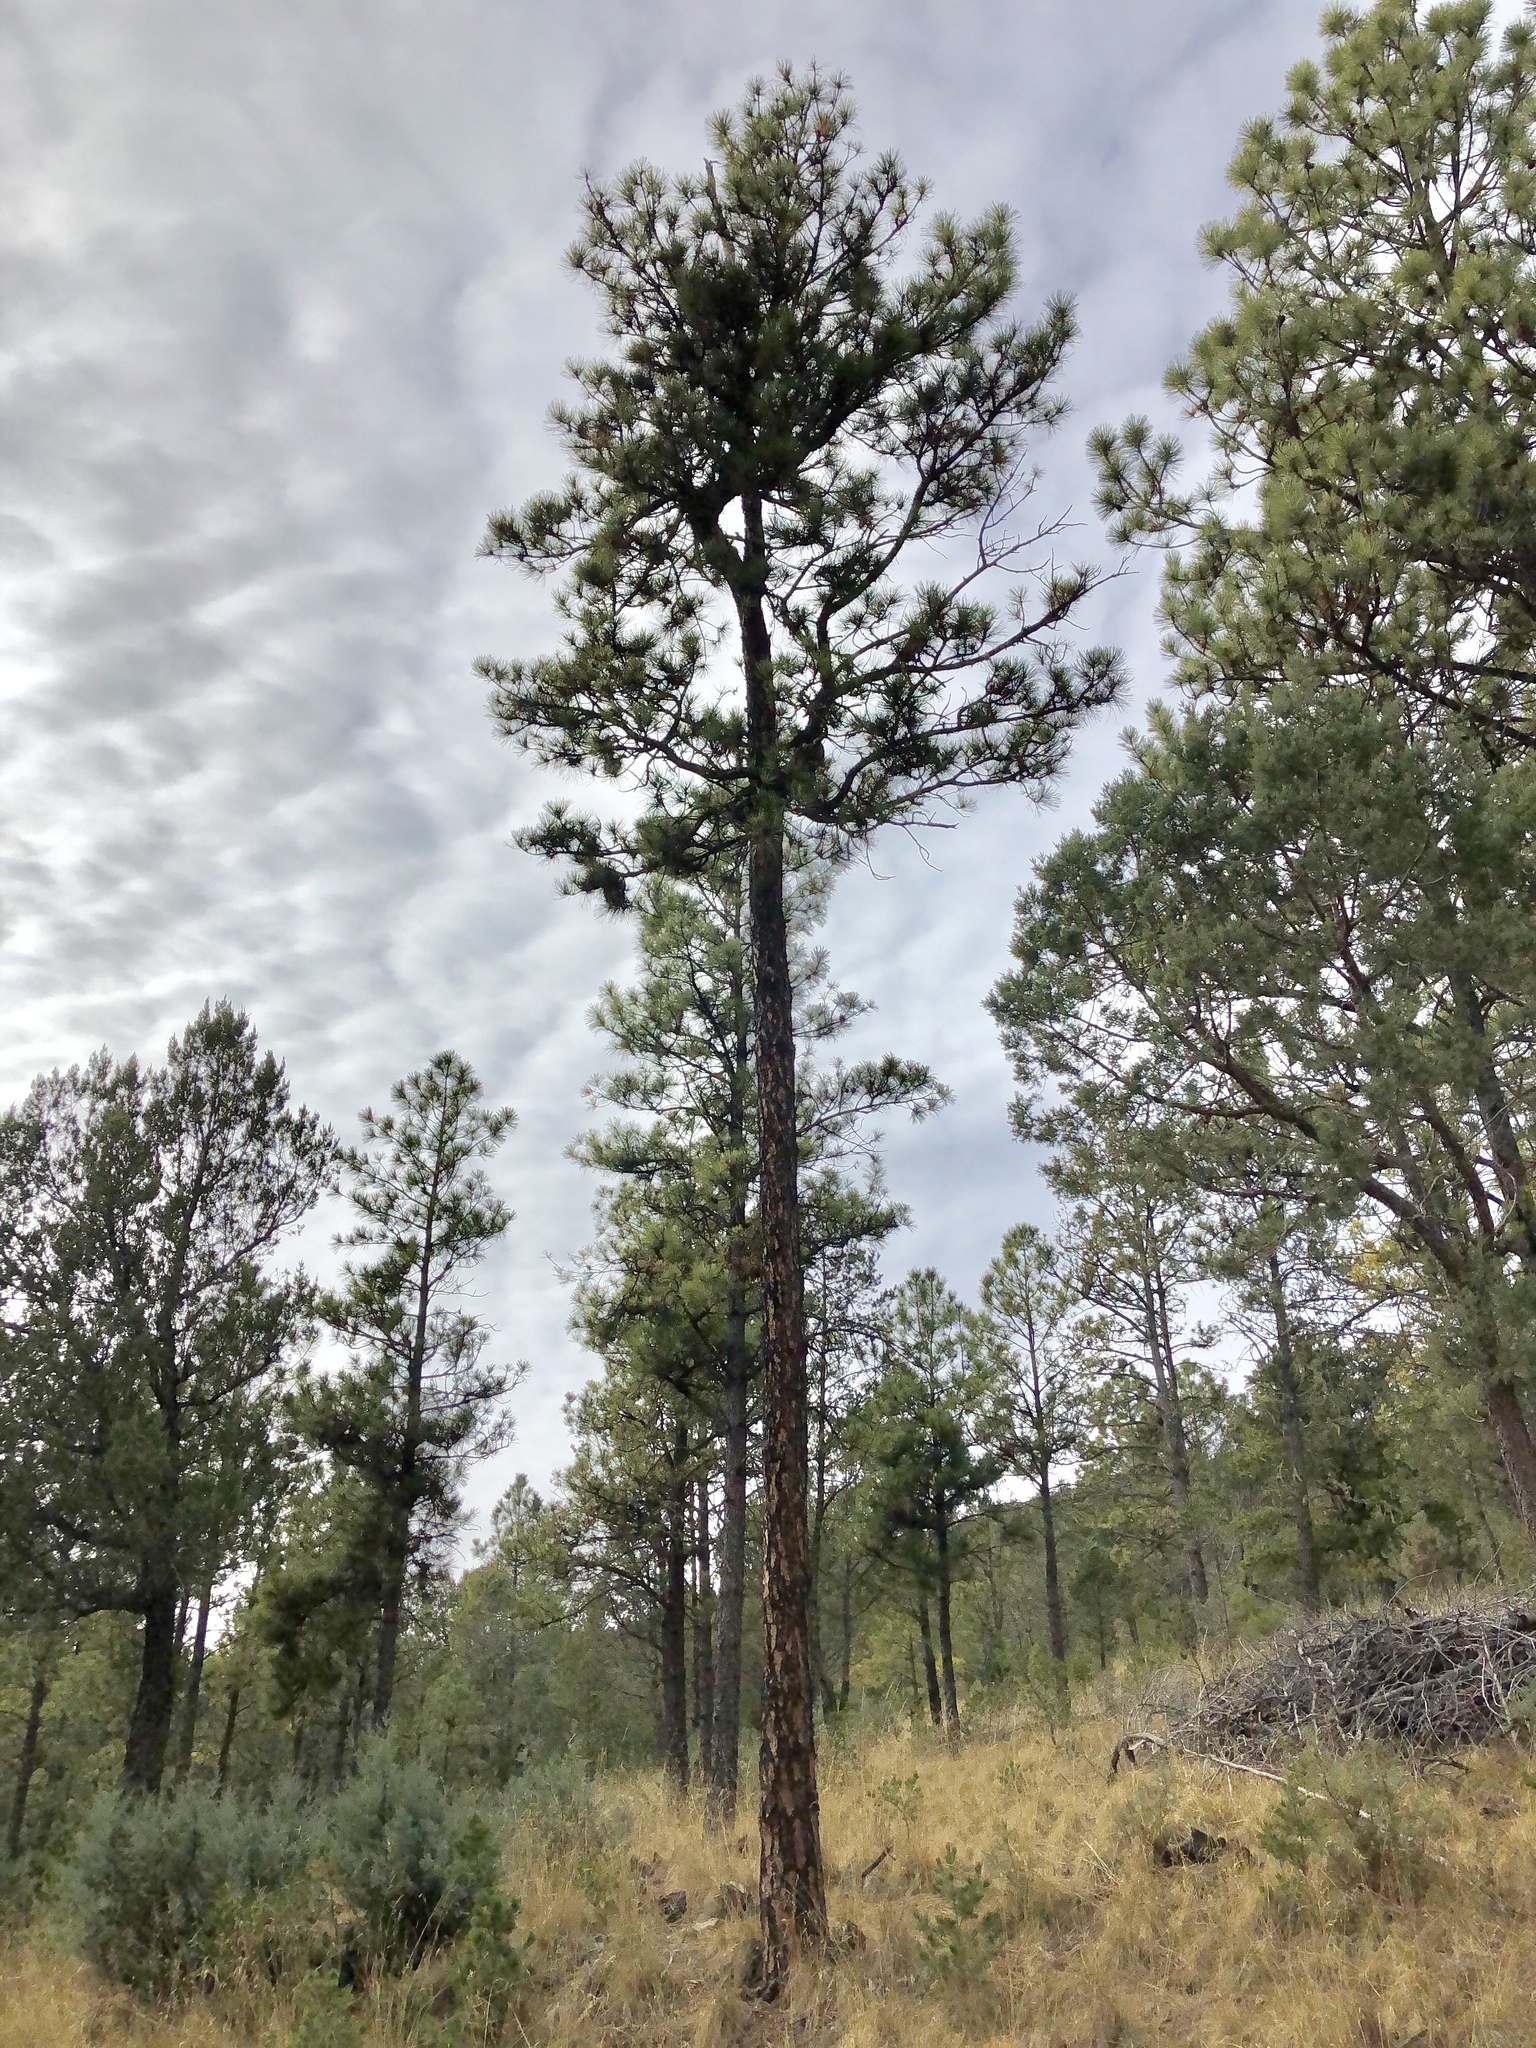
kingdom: Plantae
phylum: Tracheophyta
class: Pinopsida
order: Pinales
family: Pinaceae
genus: Pinus
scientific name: Pinus ponderosa
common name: Western yellow-pine
